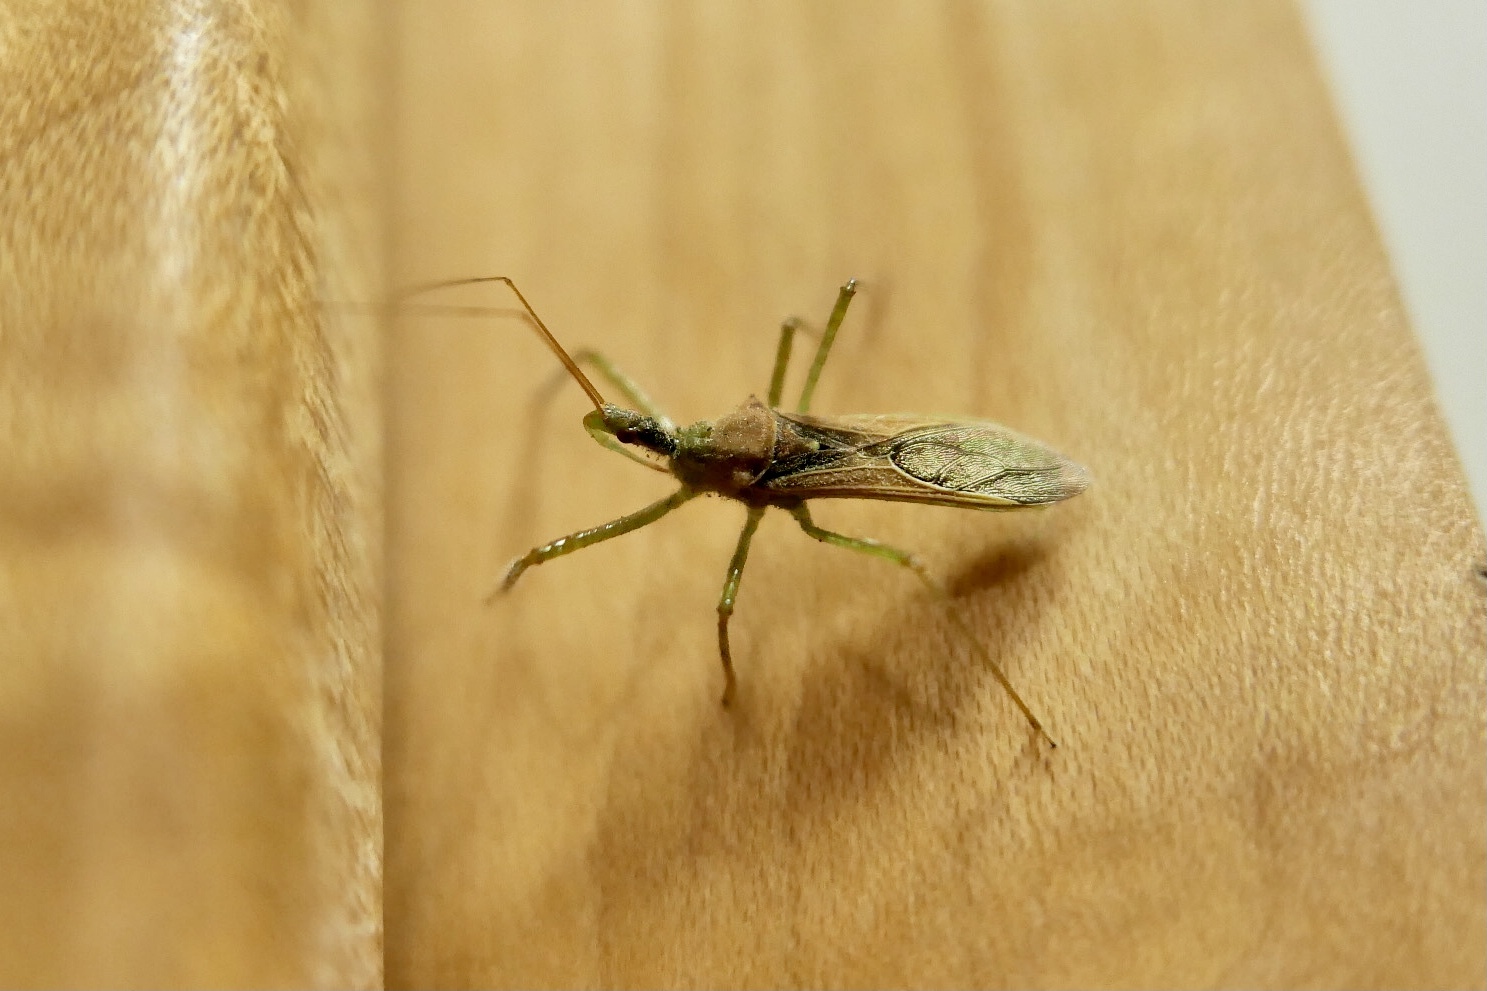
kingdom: Animalia
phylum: Arthropoda
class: Insecta
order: Hemiptera
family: Reduviidae
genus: Zelus
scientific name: Zelus renardii
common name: Assassin bug
